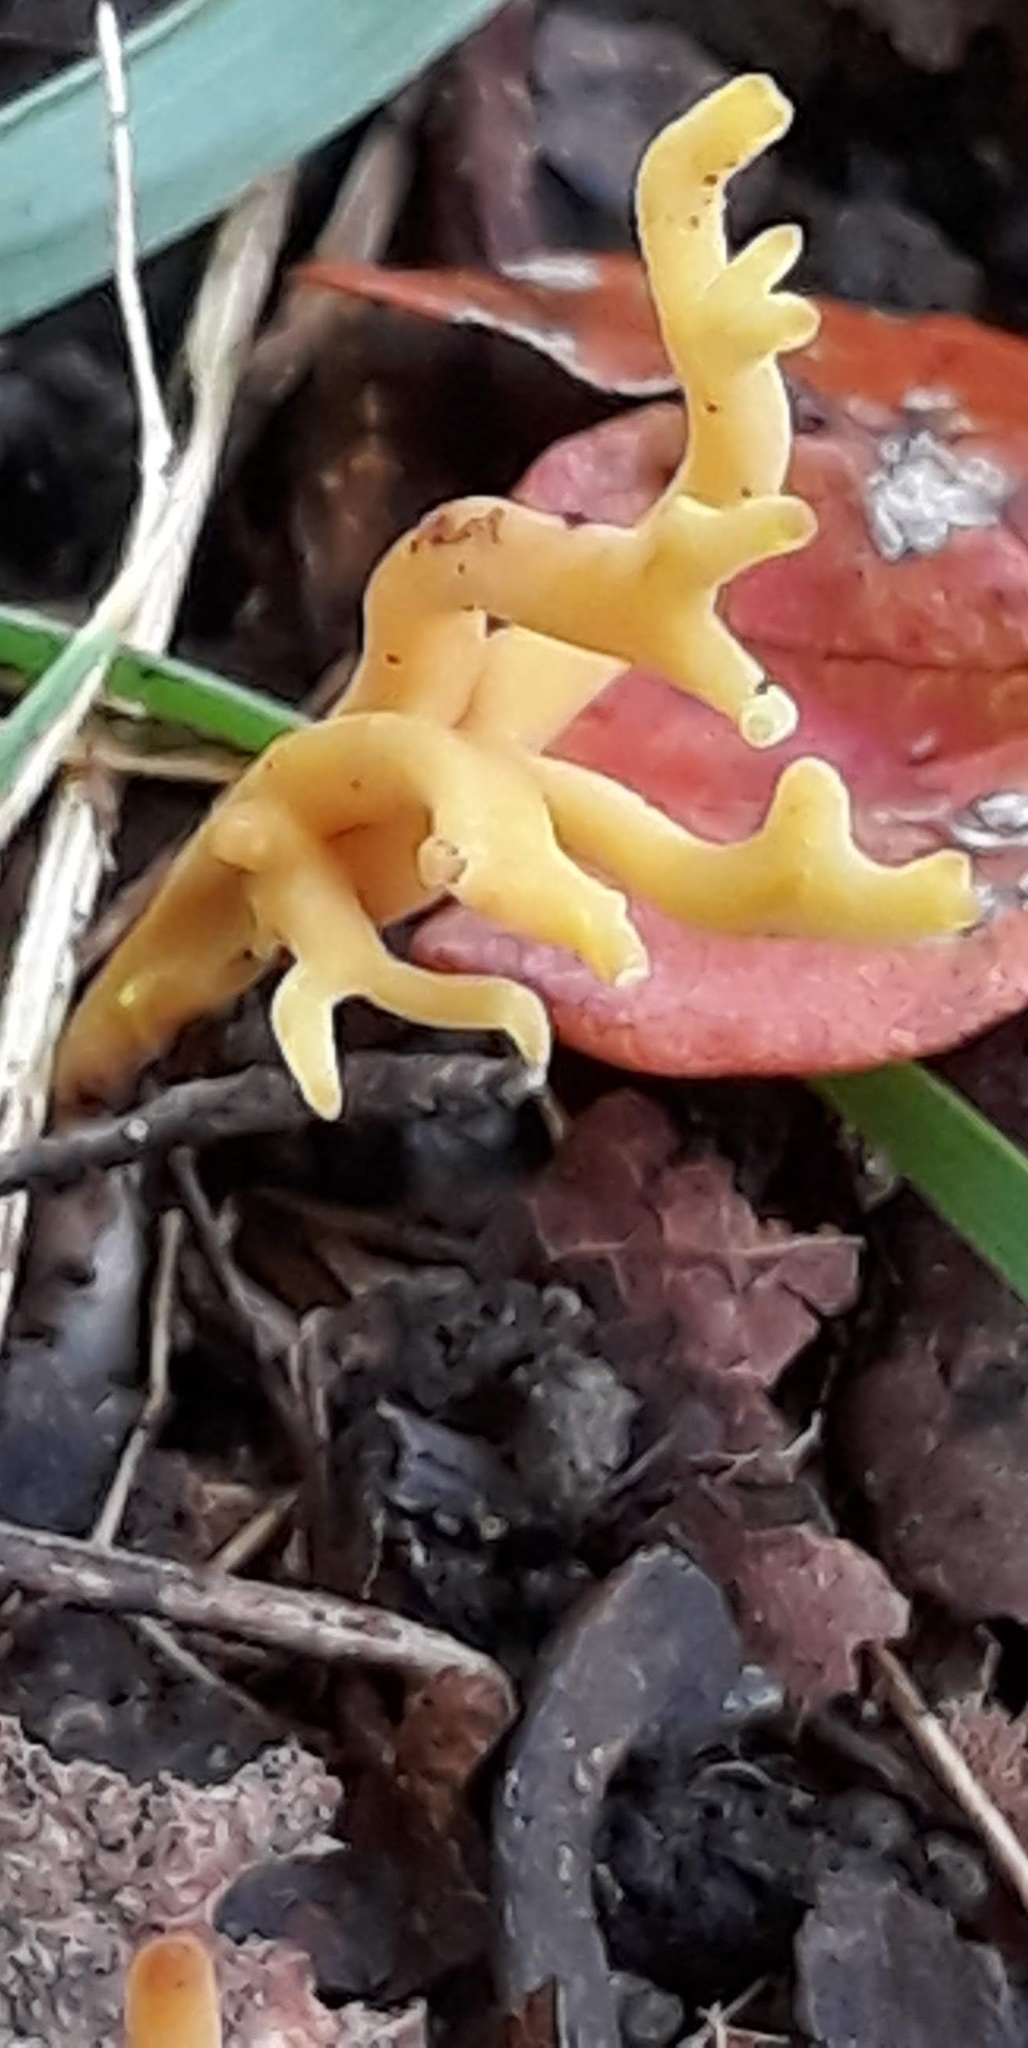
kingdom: Fungi
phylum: Basidiomycota
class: Agaricomycetes
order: Agaricales
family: Clavariaceae
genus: Clavulinopsis
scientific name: Clavulinopsis corniculata
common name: Meadow coral
